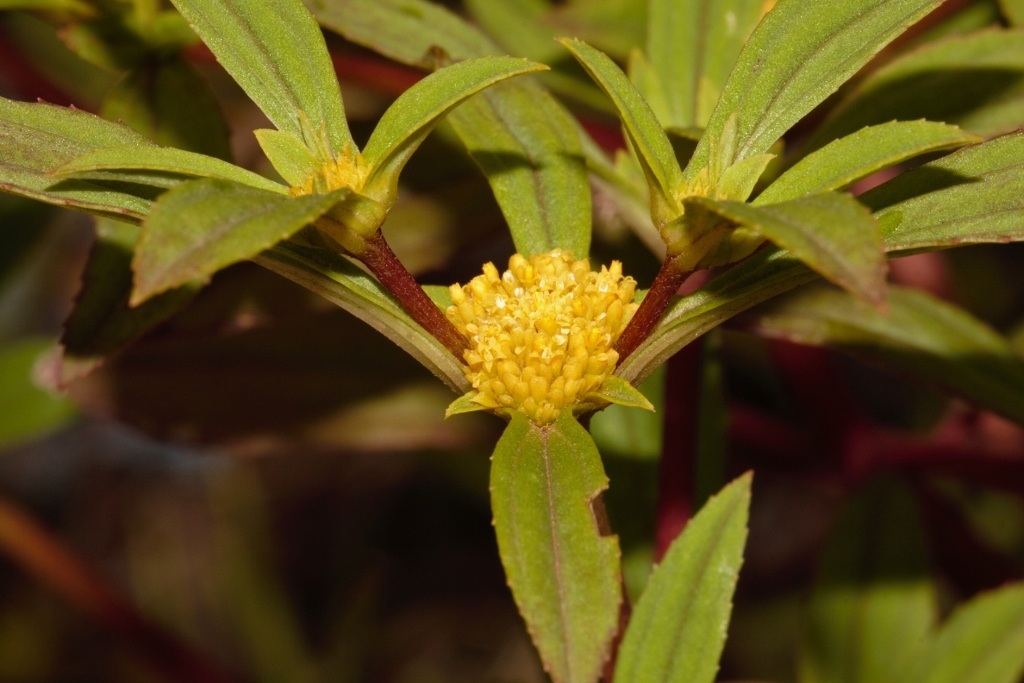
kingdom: Plantae
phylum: Tracheophyta
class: Magnoliopsida
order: Asterales
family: Asteraceae
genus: Flaveria
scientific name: Flaveria trinervia
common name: Clustered yellowtops
